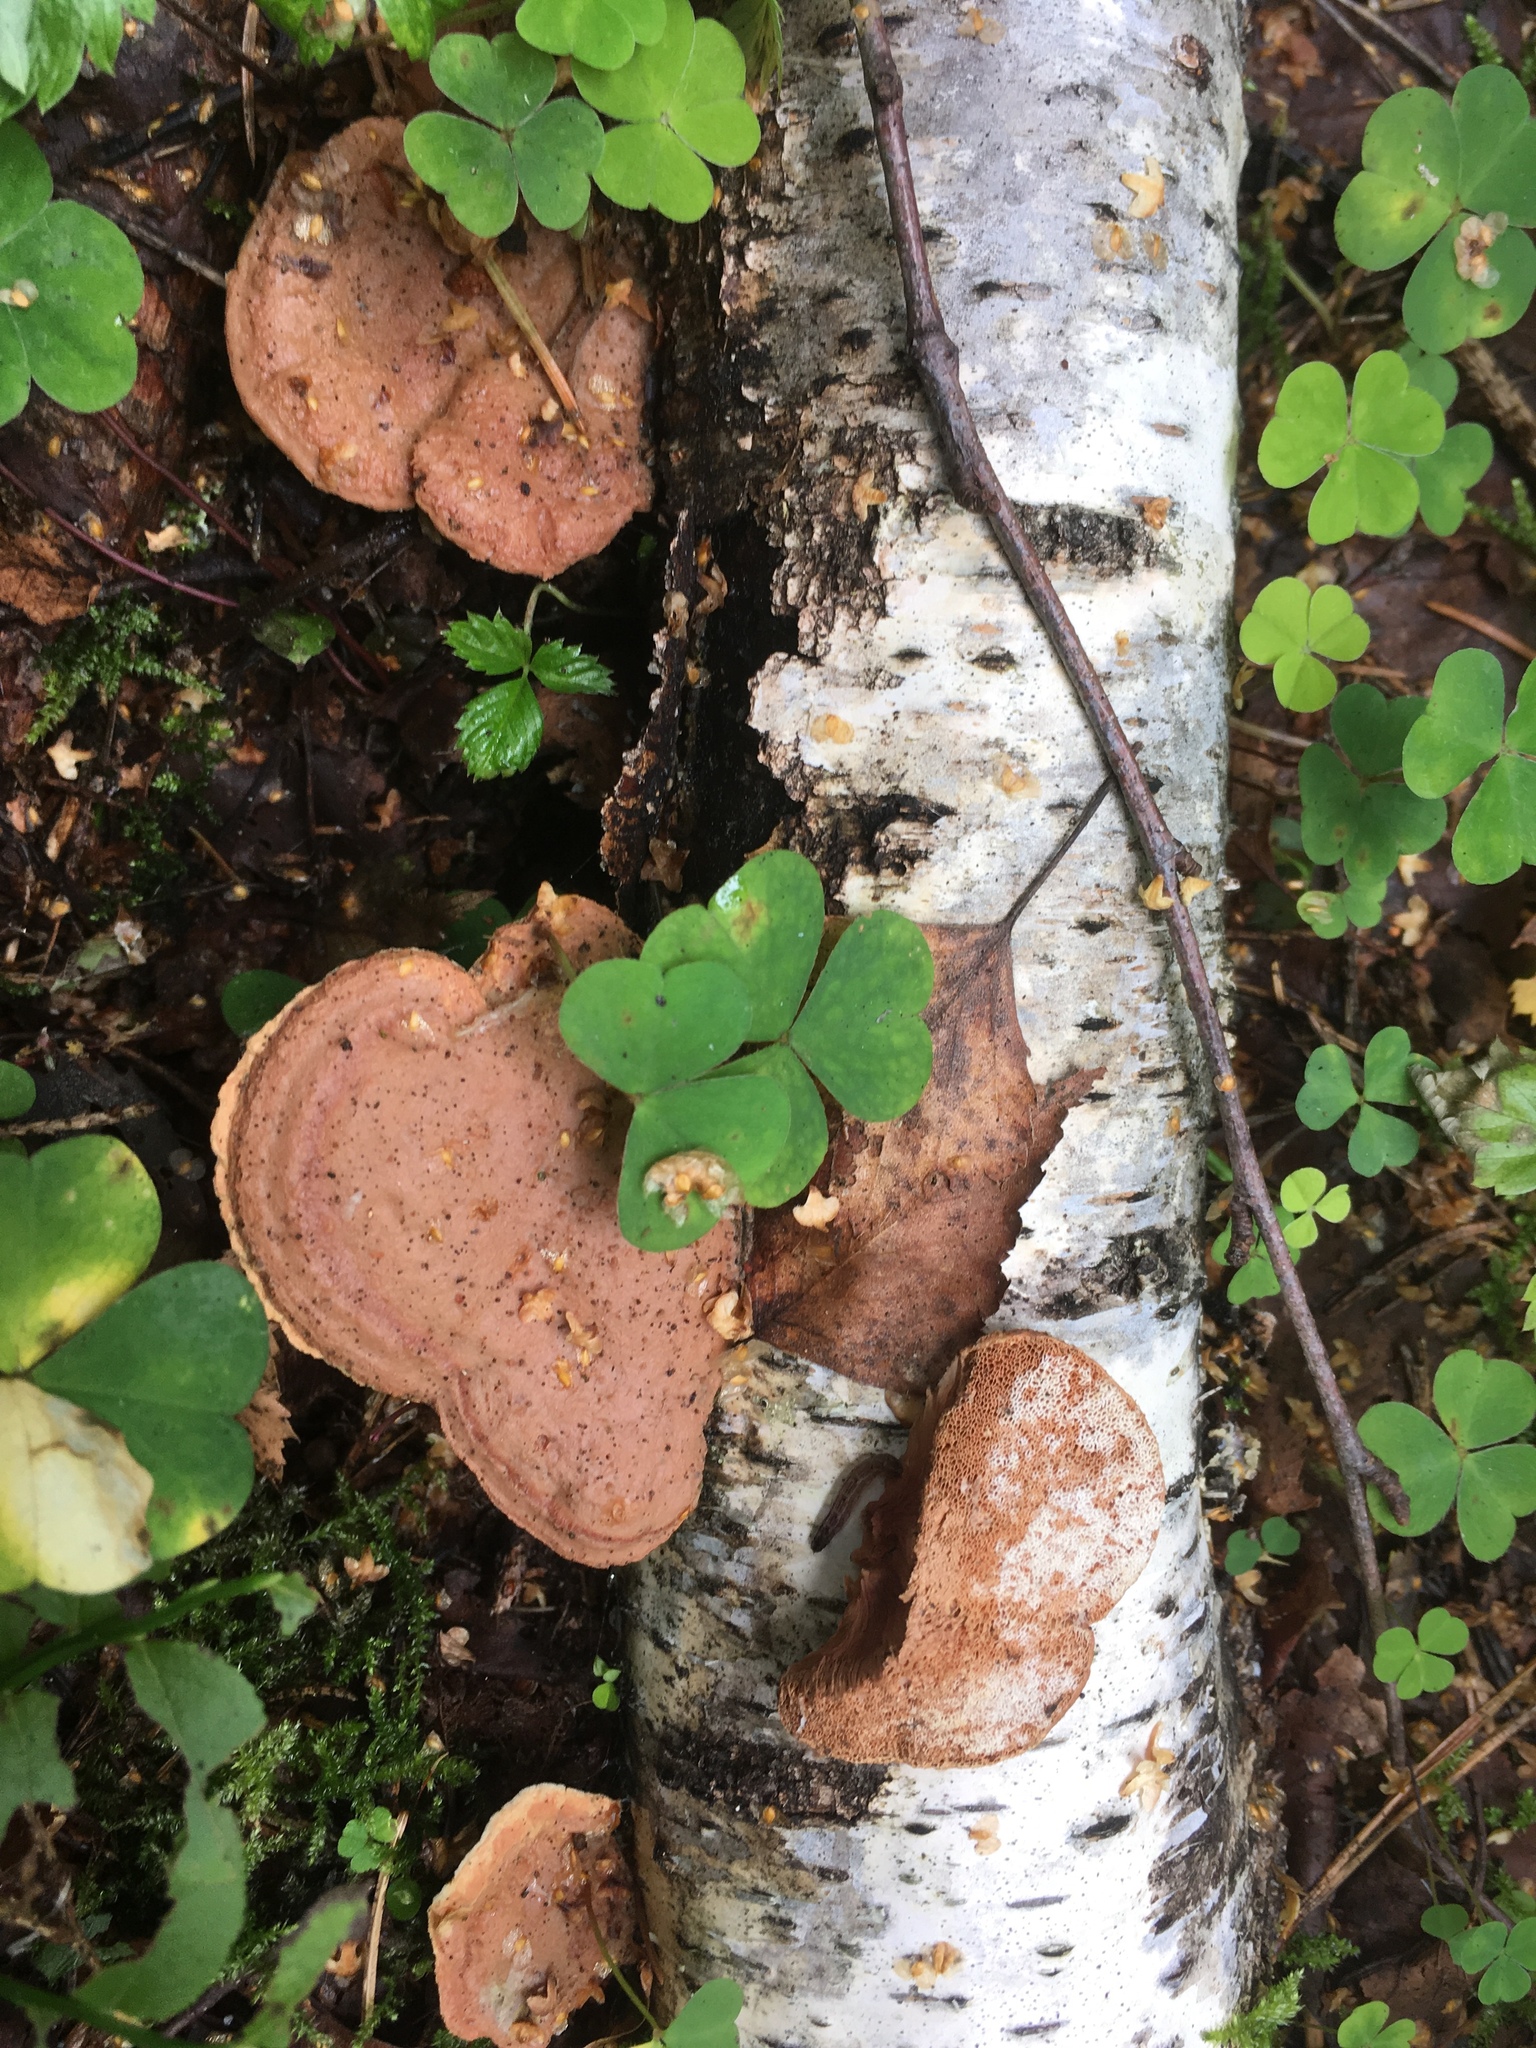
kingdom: Fungi
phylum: Basidiomycota
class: Agaricomycetes
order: Polyporales
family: Phanerochaetaceae
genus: Hapalopilus
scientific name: Hapalopilus rutilans
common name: Tender nesting polypore
